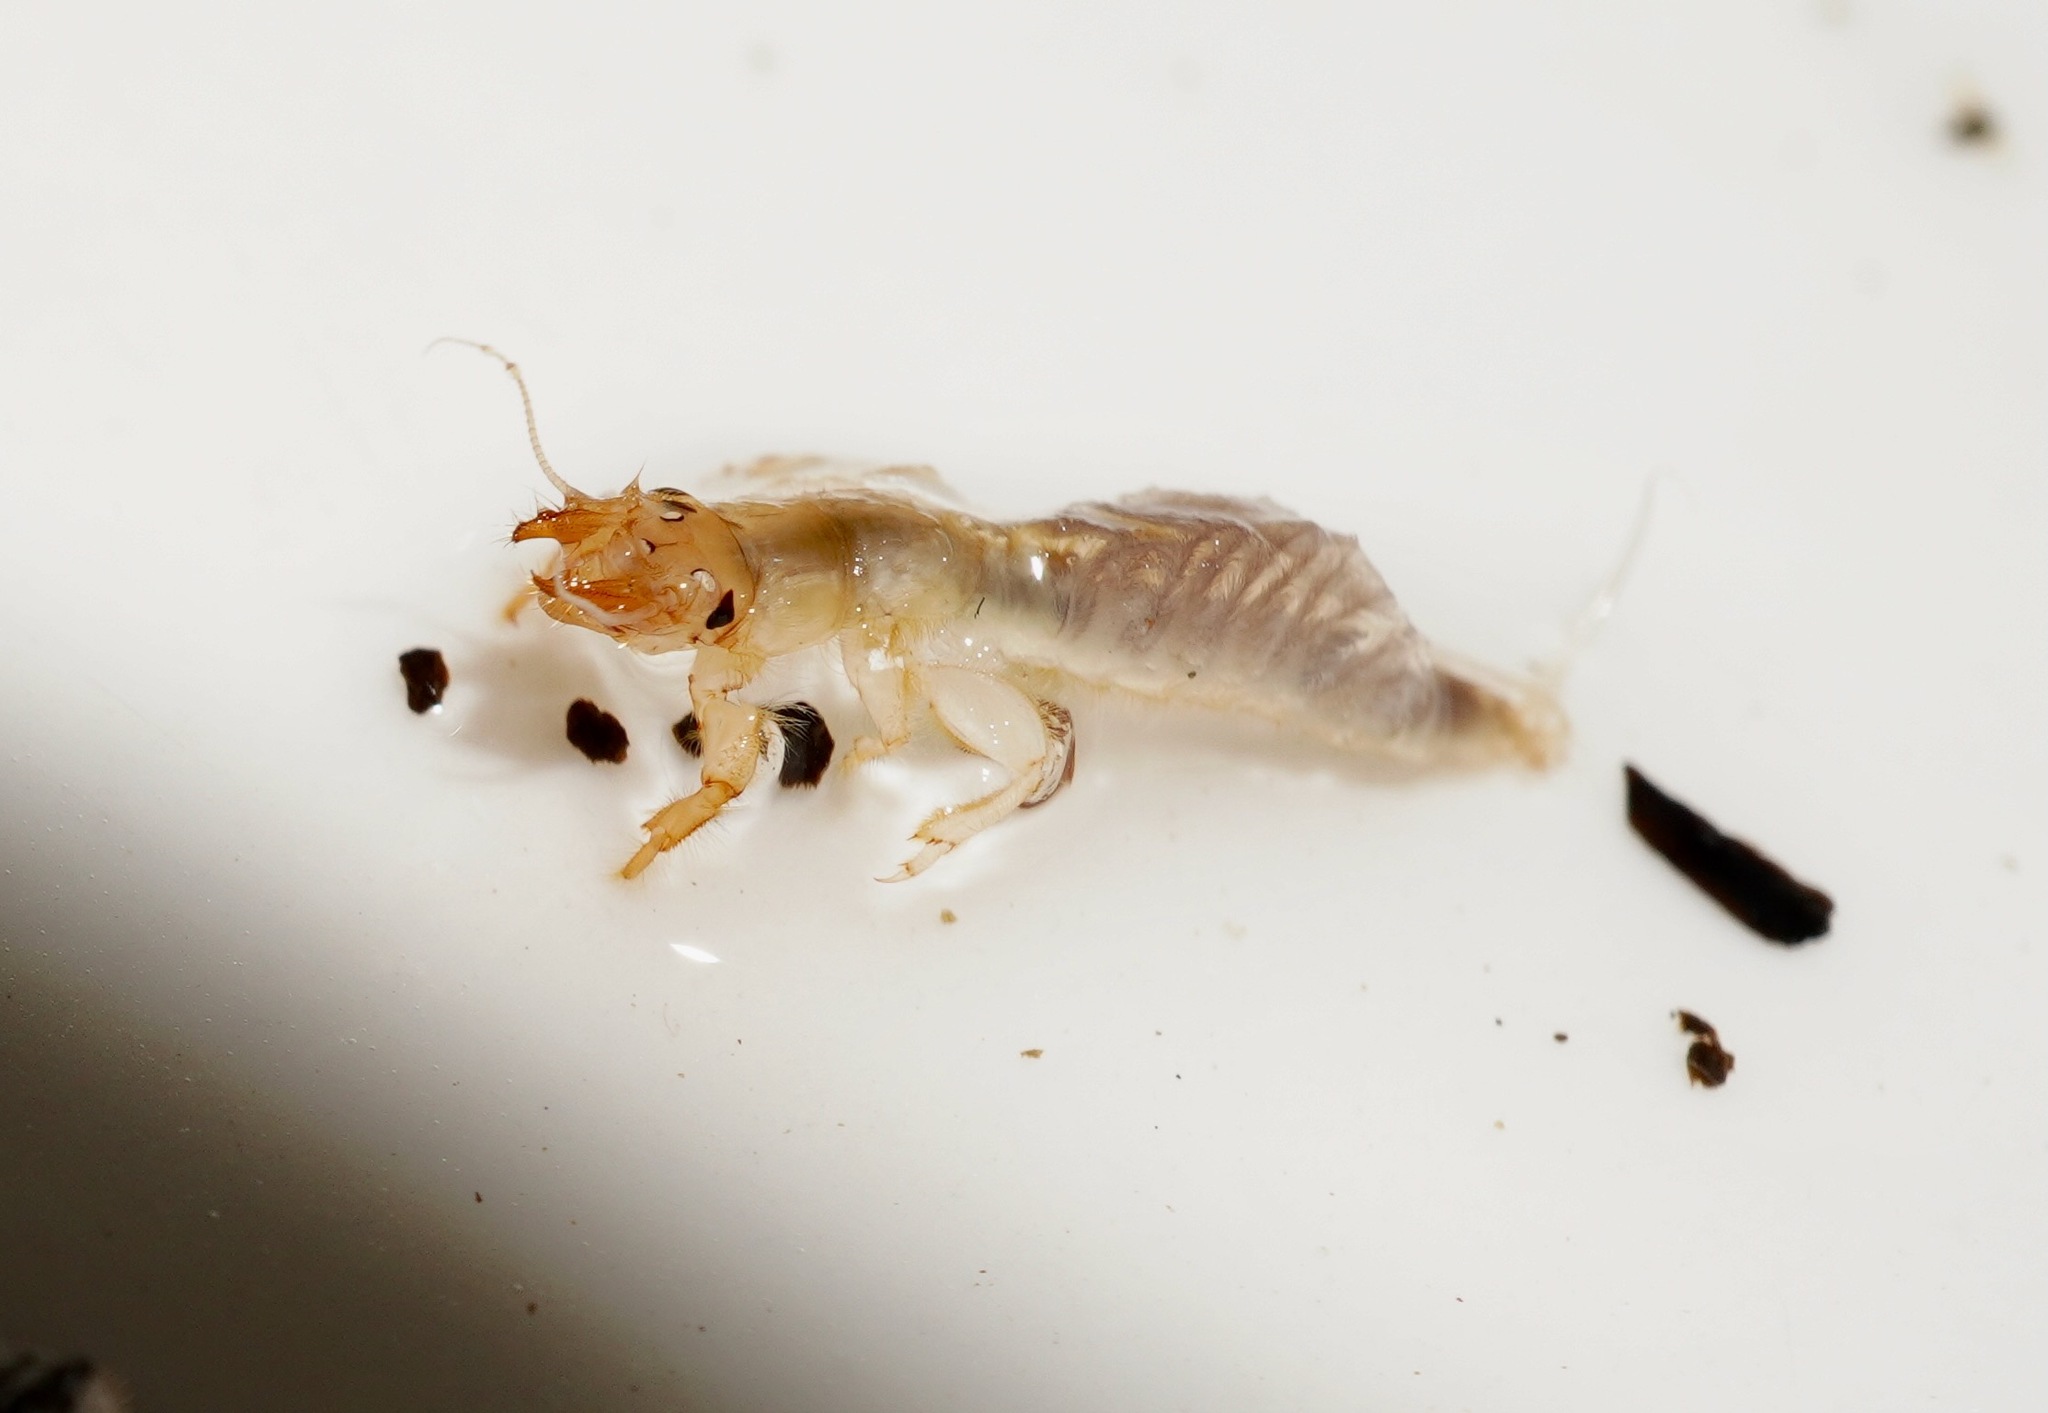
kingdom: Animalia
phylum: Arthropoda
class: Insecta
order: Ephemeroptera
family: Ichthybotidae
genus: Ichthybotus
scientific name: Ichthybotus hudsoni
